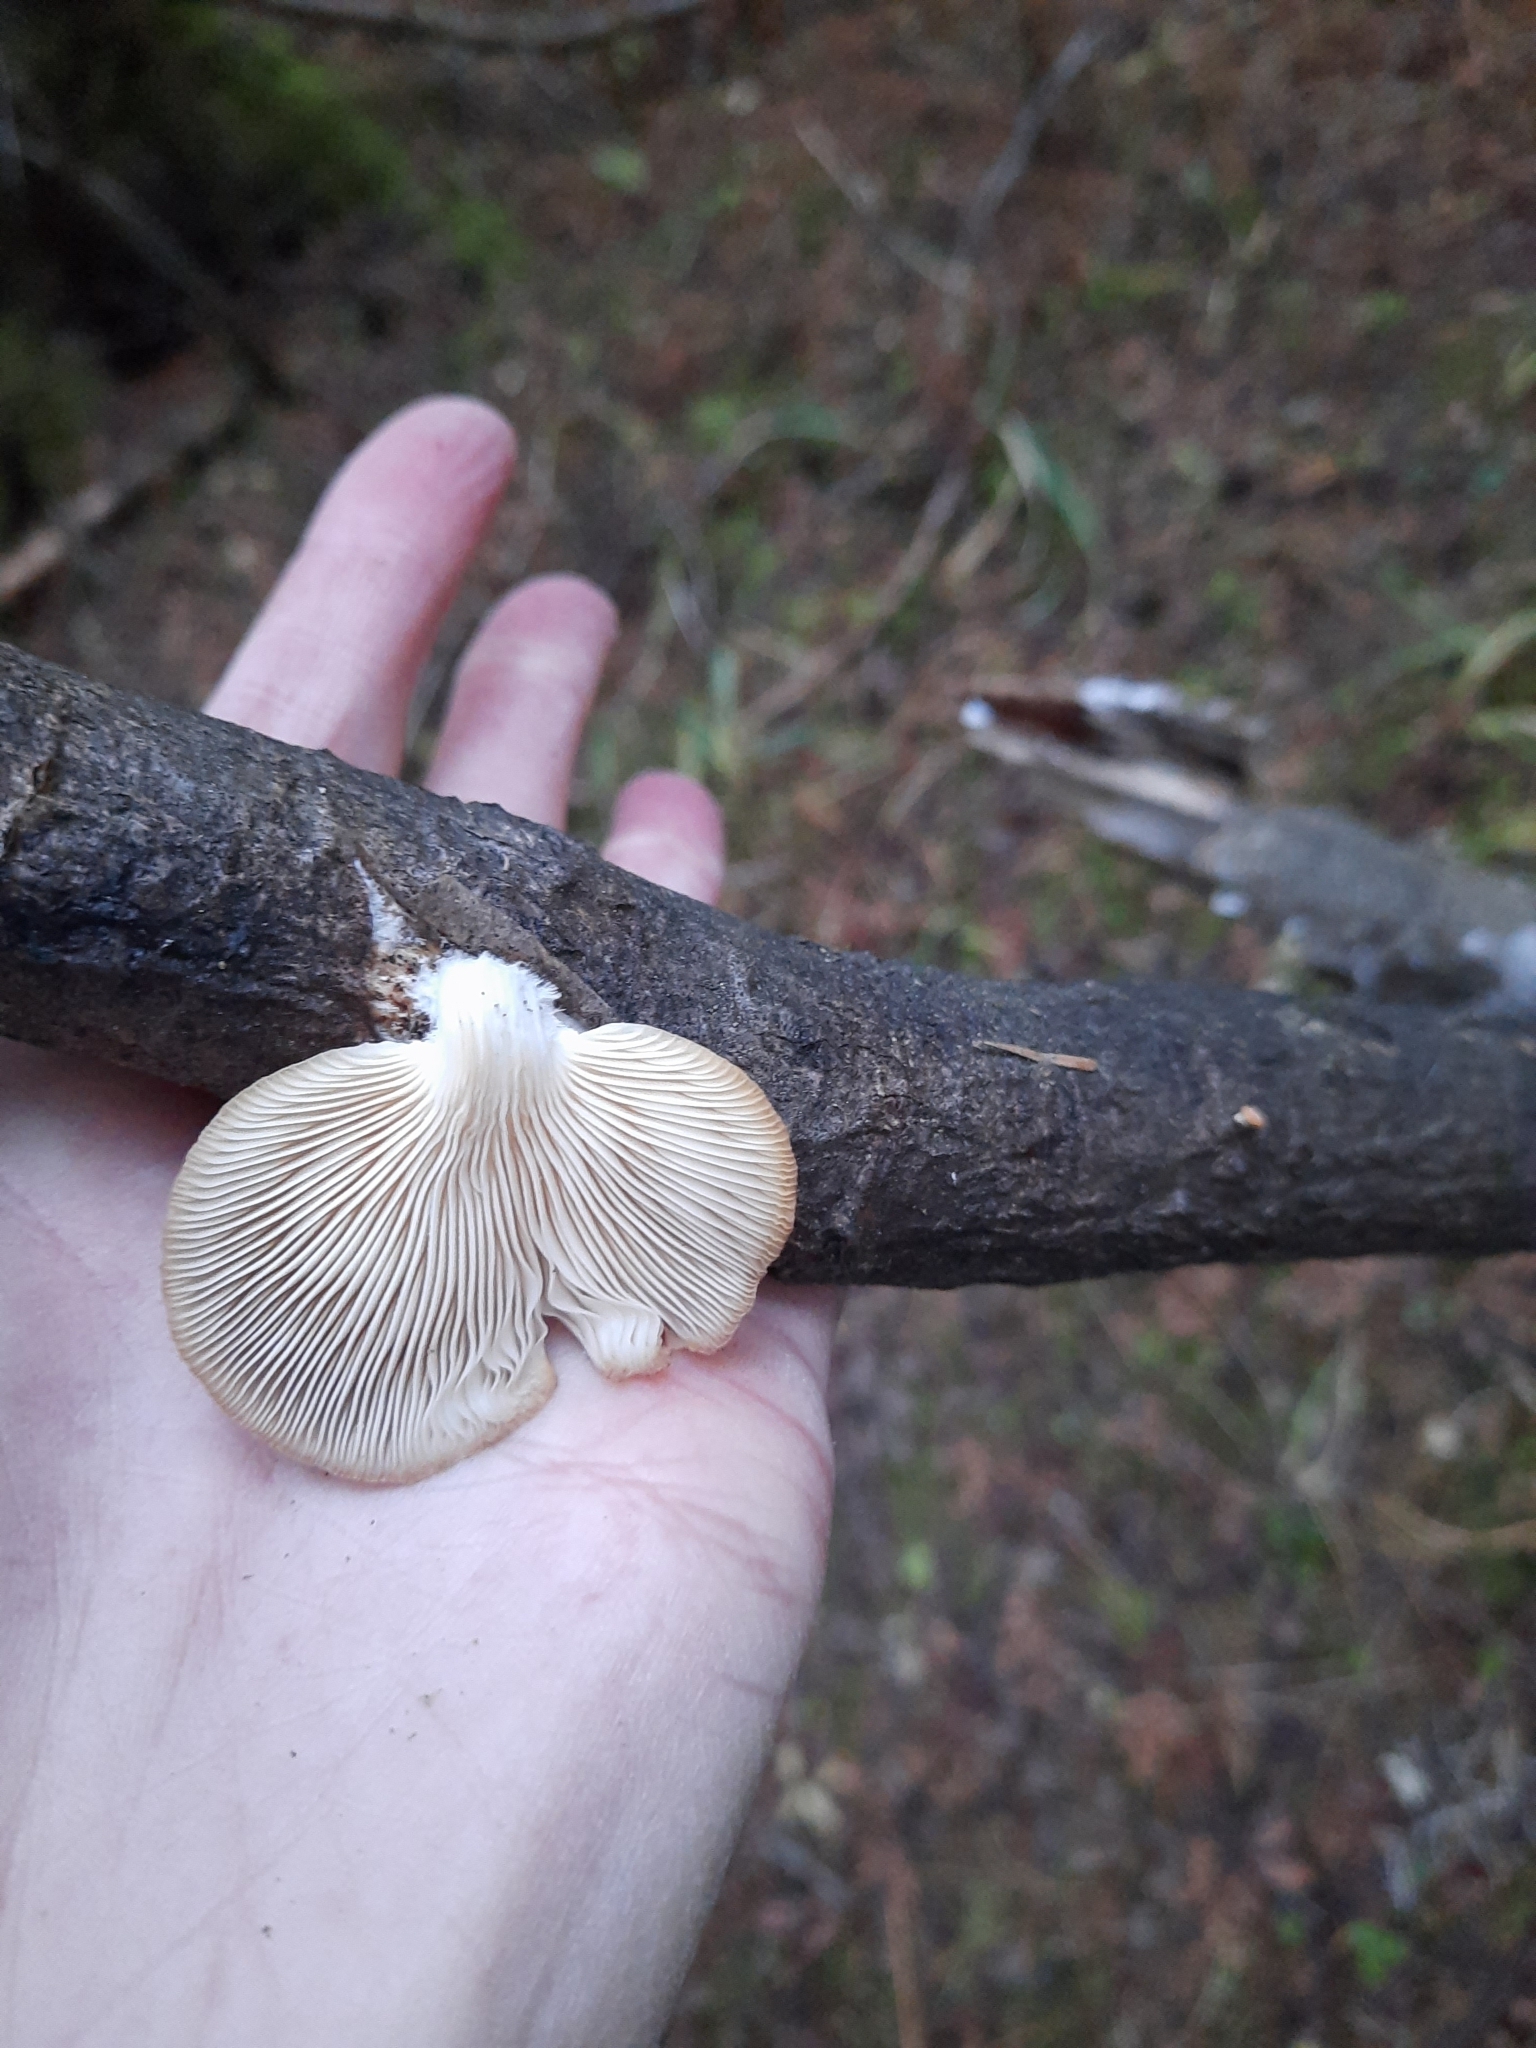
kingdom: Fungi
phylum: Basidiomycota
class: Agaricomycetes
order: Agaricales
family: Pleurotaceae
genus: Pleurotus
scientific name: Pleurotus pulmonarius
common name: Pale oyster
